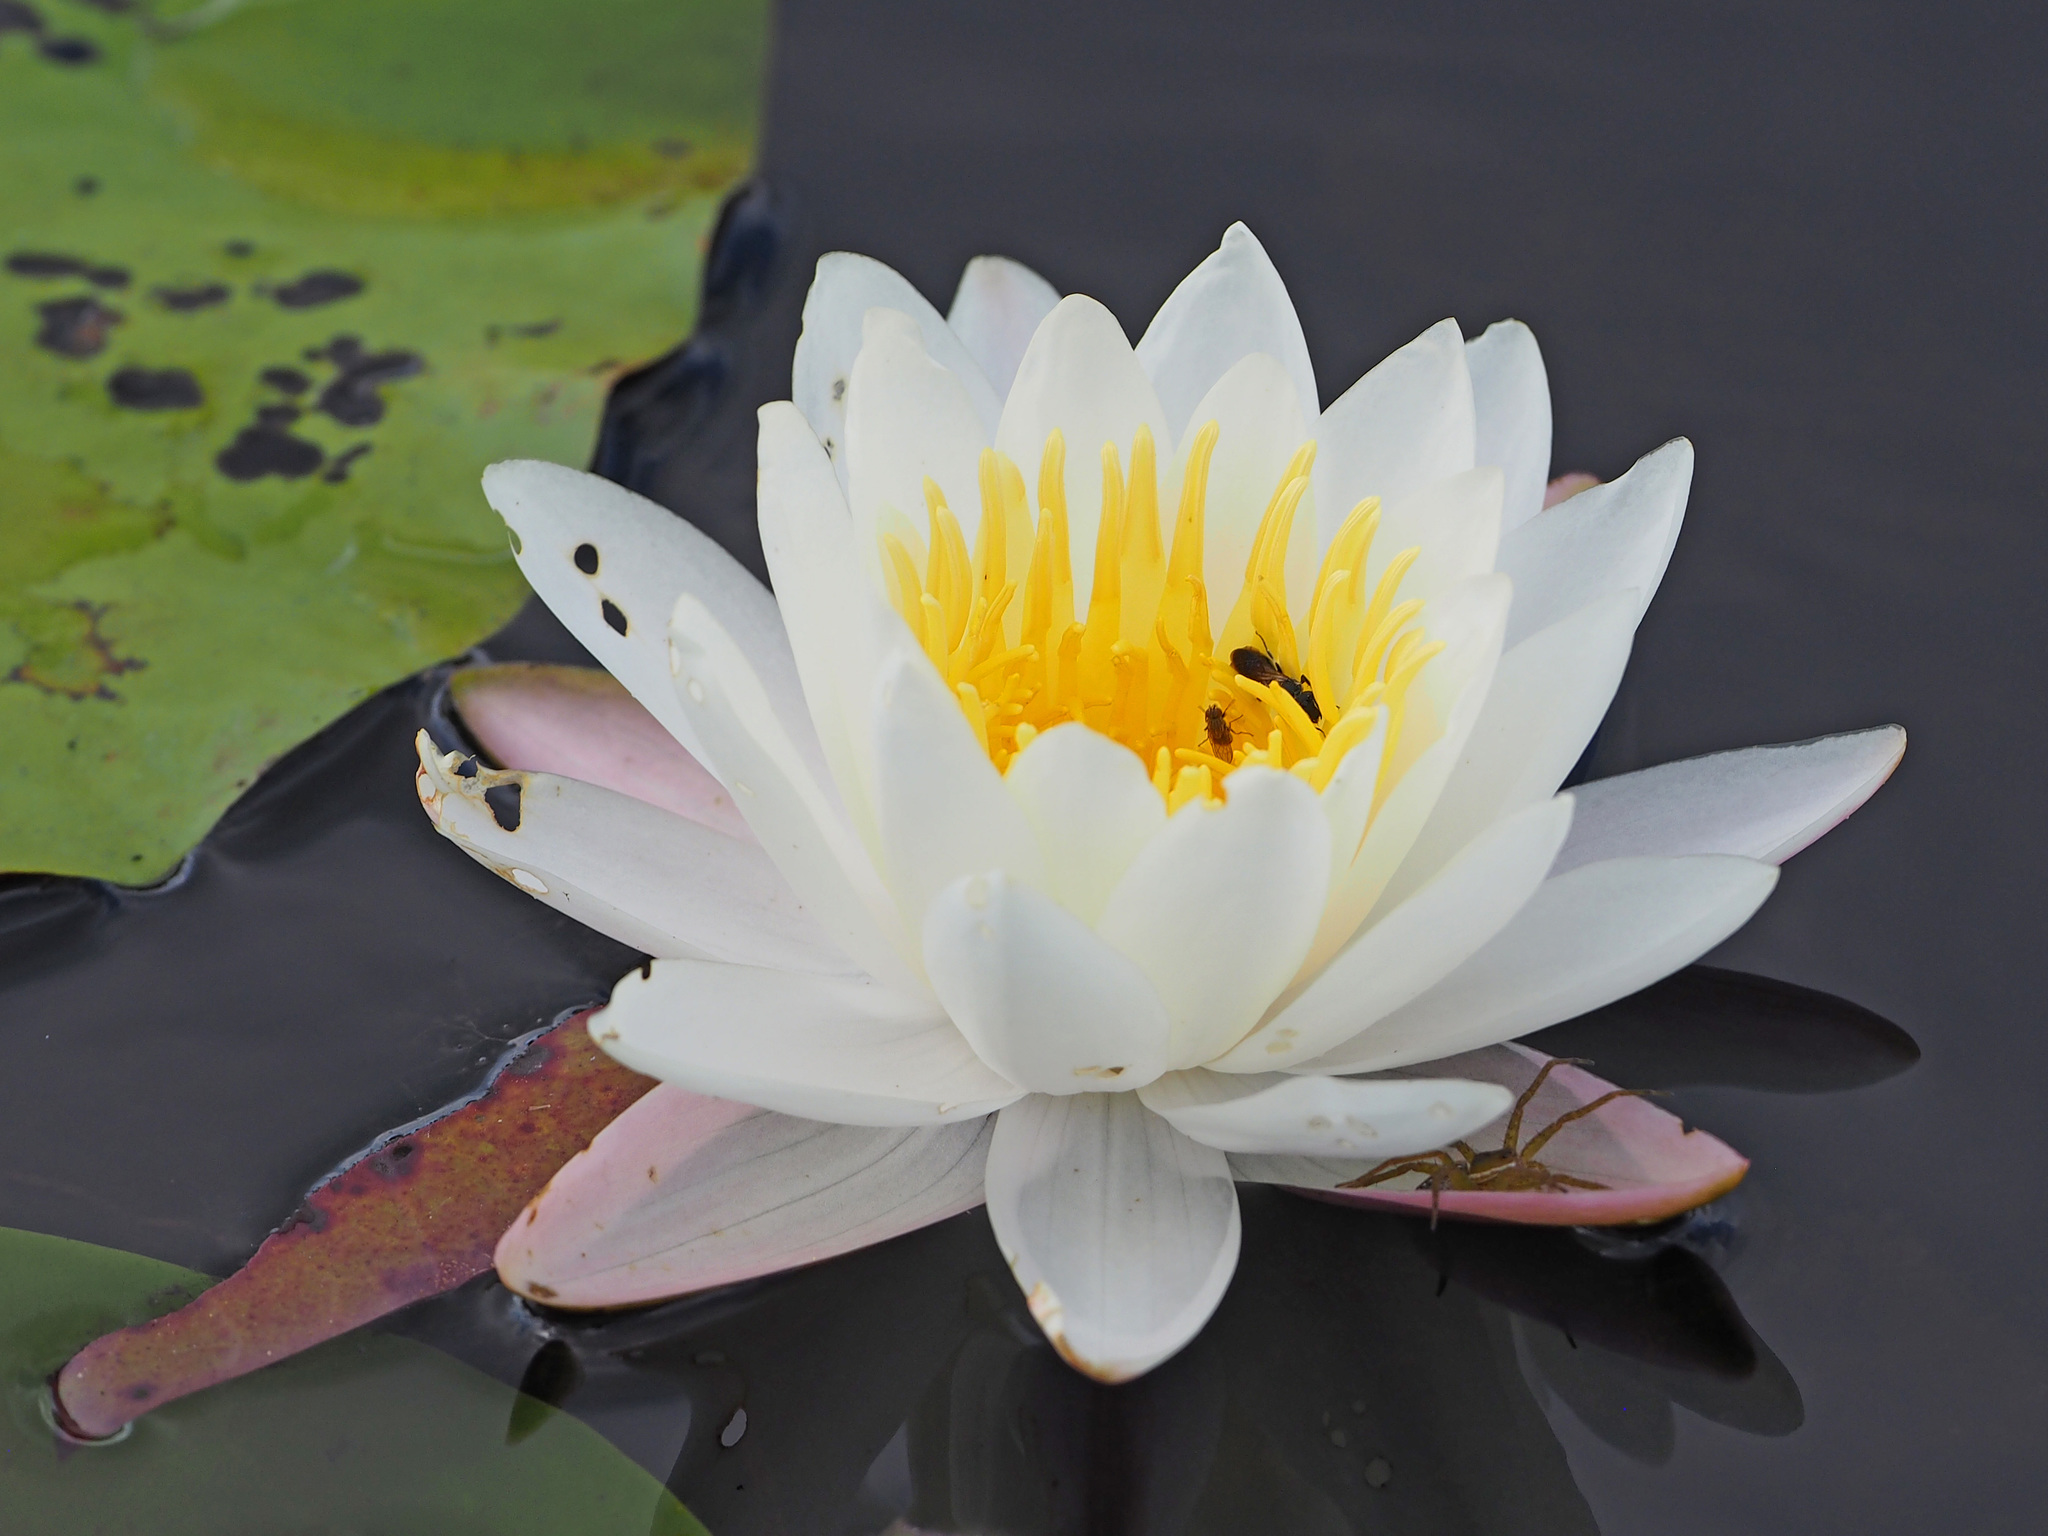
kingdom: Plantae
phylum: Tracheophyta
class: Magnoliopsida
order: Nymphaeales
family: Nymphaeaceae
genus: Nymphaea
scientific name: Nymphaea odorata
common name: Fragrant water-lily
